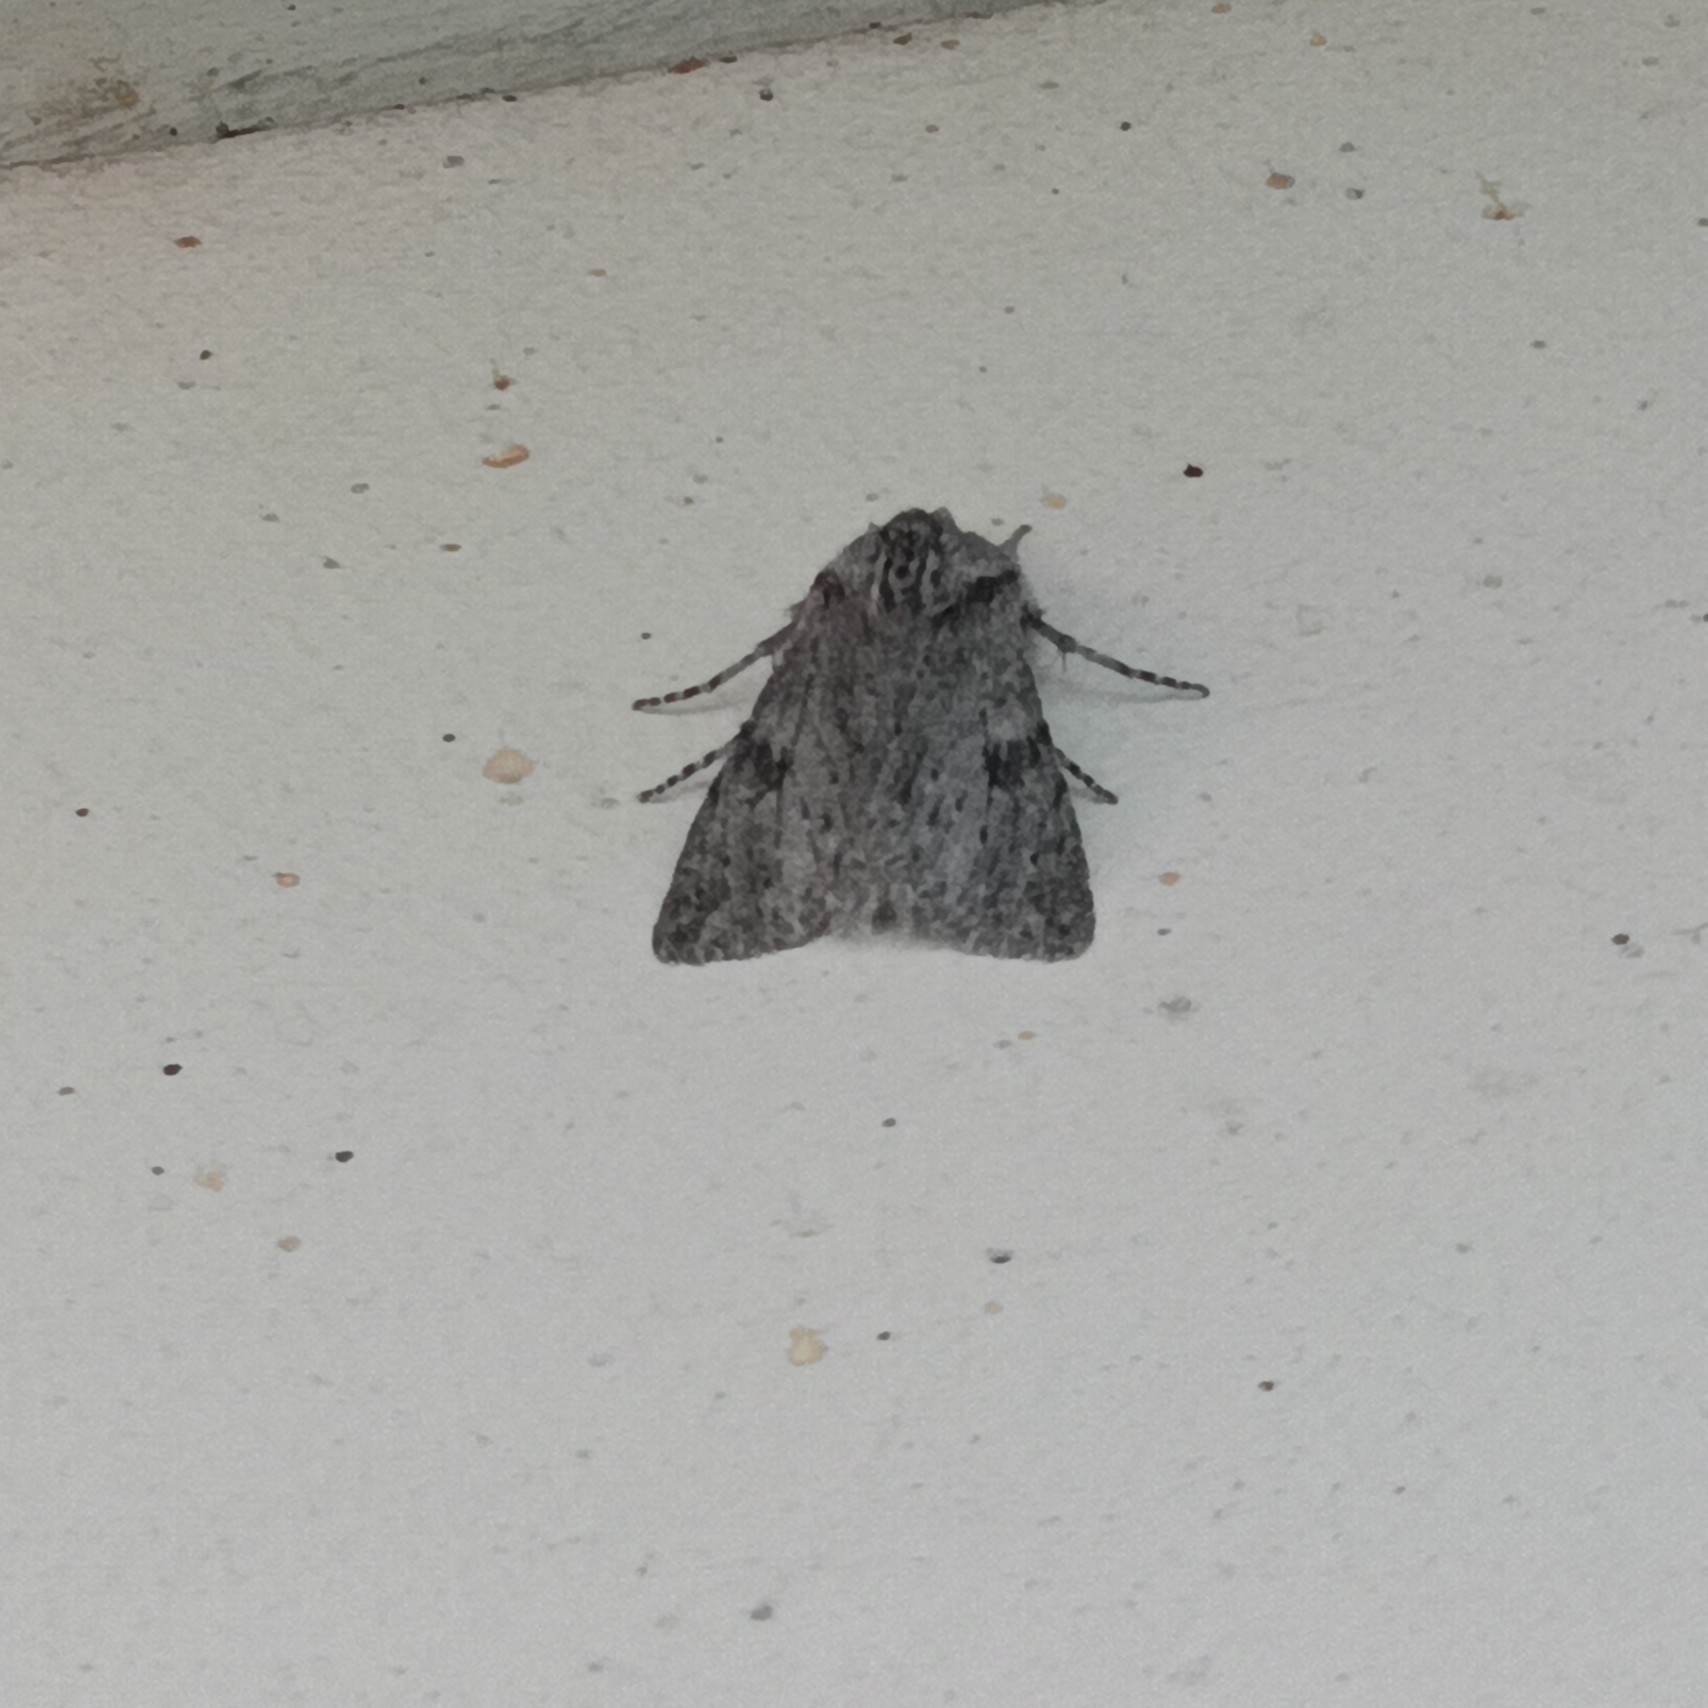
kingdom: Animalia
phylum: Arthropoda
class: Insecta
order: Lepidoptera
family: Notodontidae
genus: Dicranura
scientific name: Dicranura ulmi
